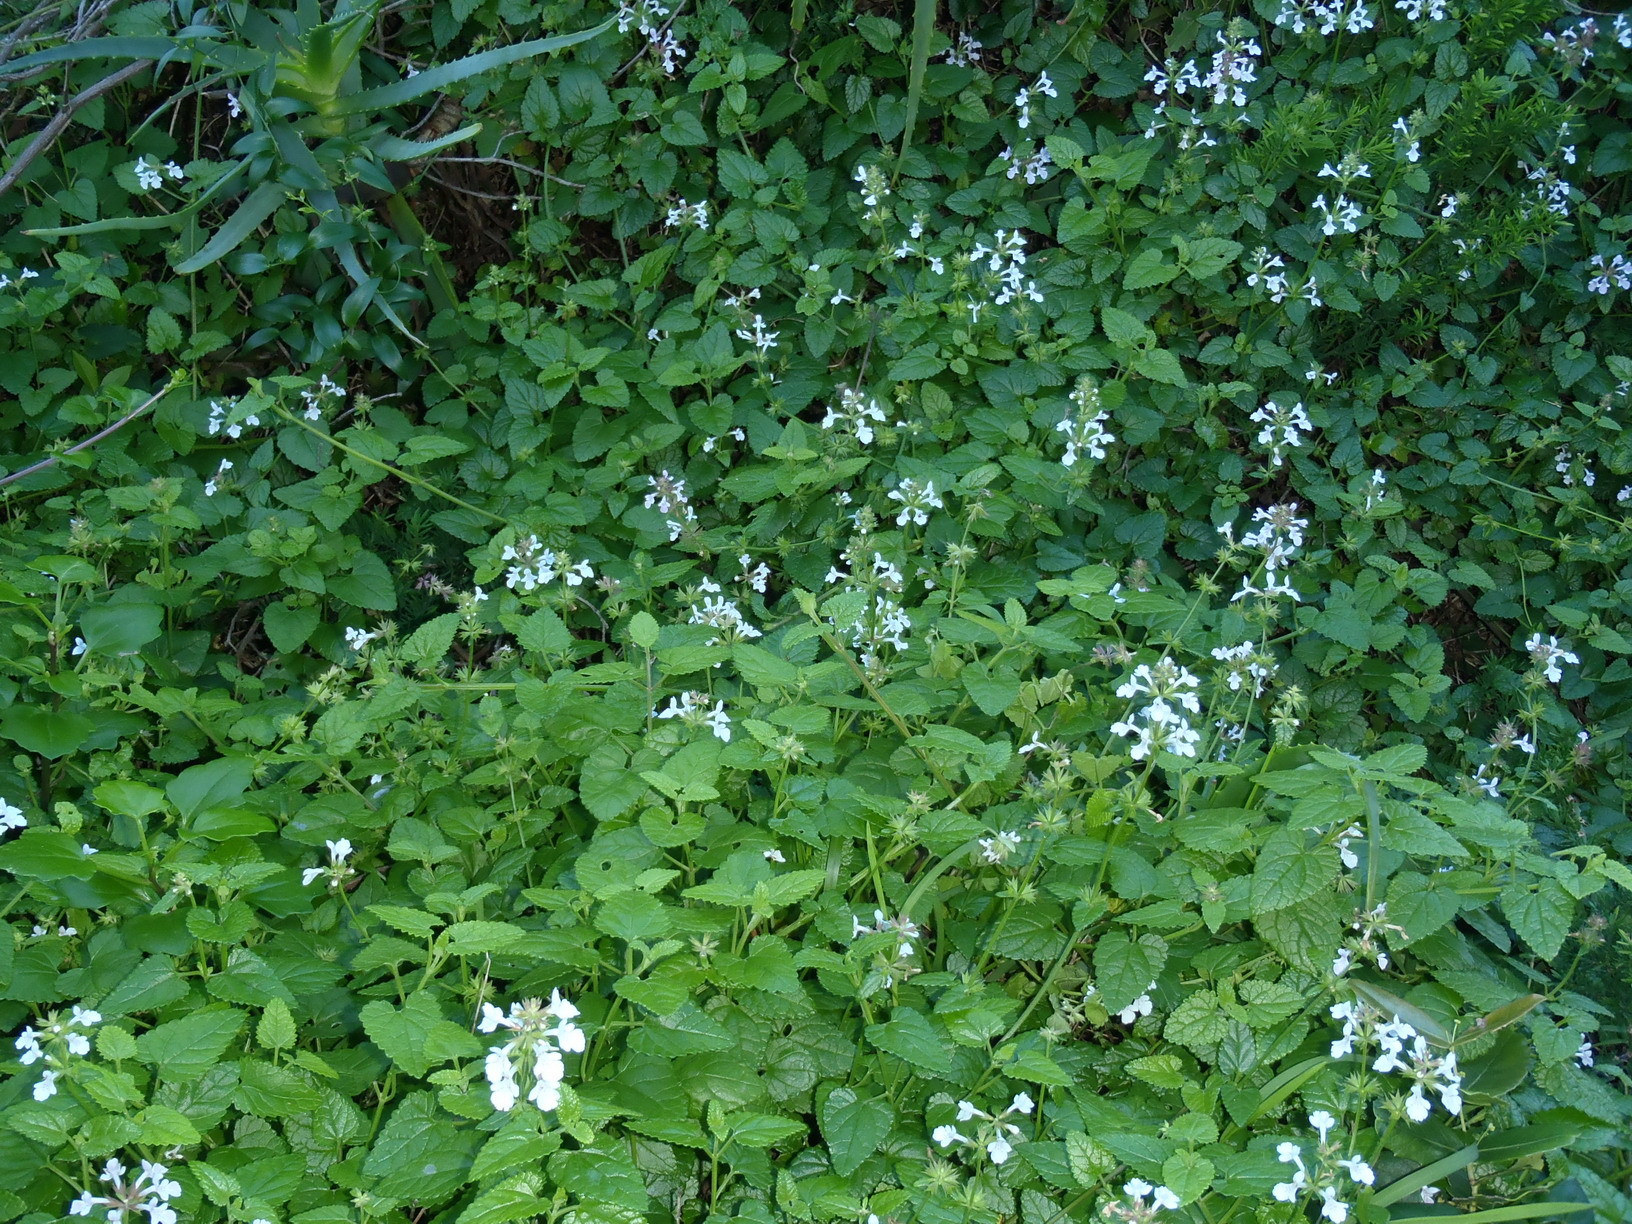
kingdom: Plantae
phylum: Tracheophyta
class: Magnoliopsida
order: Lamiales
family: Lamiaceae
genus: Stachys
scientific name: Stachys aethiopica
